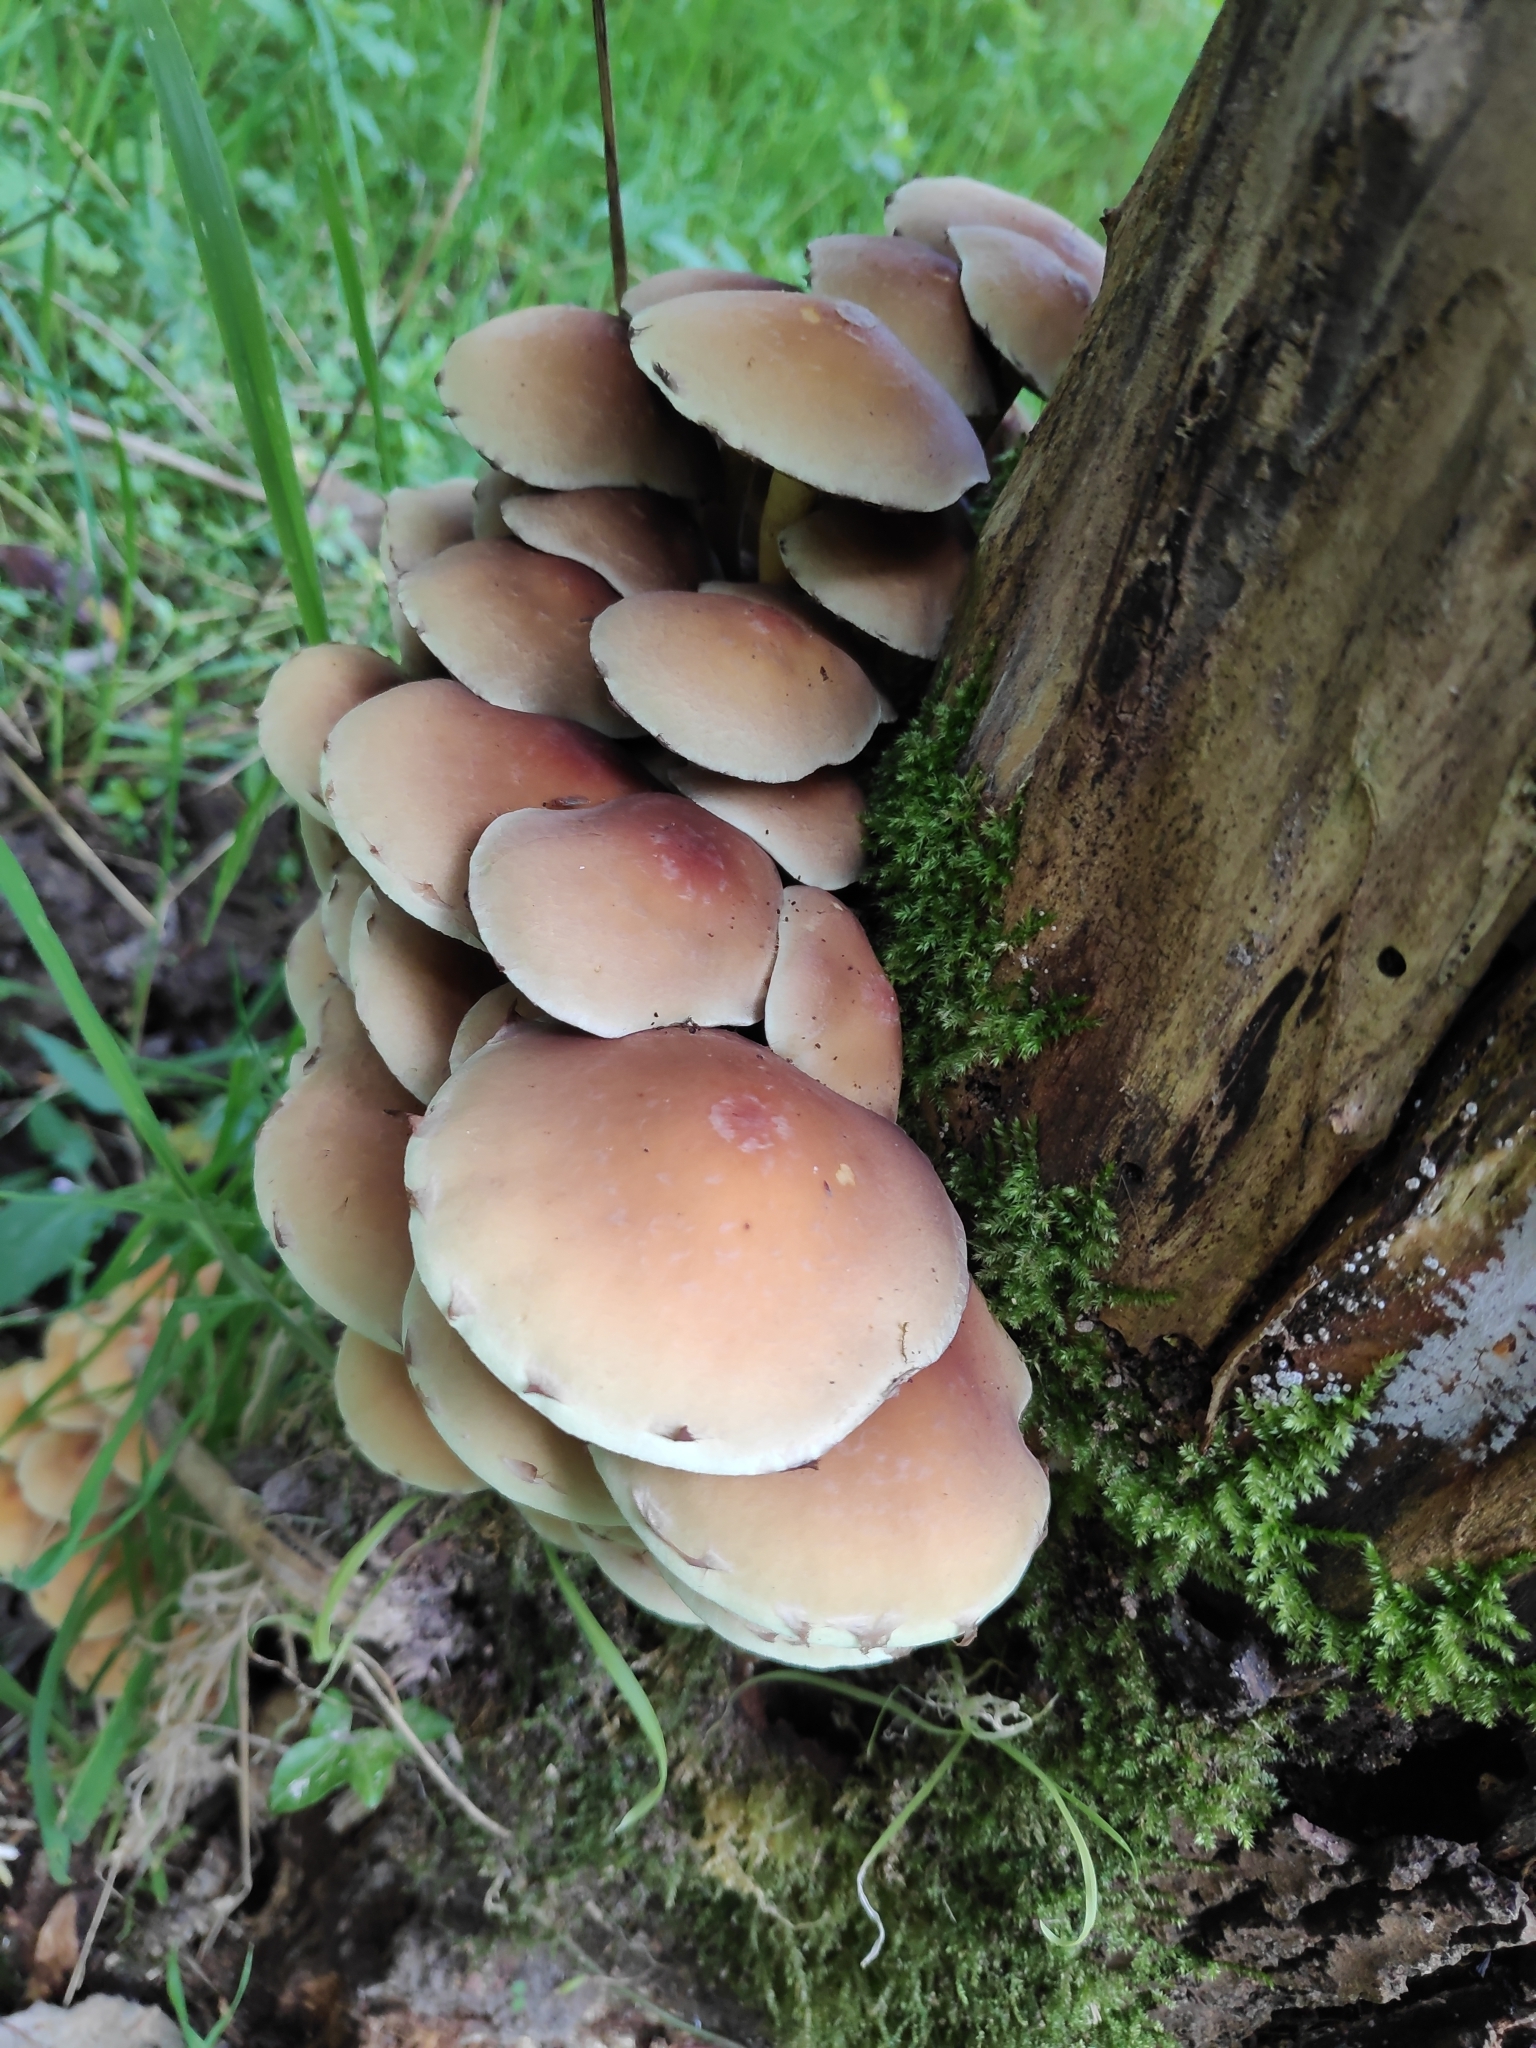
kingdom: Fungi
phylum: Basidiomycota
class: Agaricomycetes
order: Agaricales
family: Strophariaceae
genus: Hypholoma
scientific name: Hypholoma fasciculare
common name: Sulphur tuft
